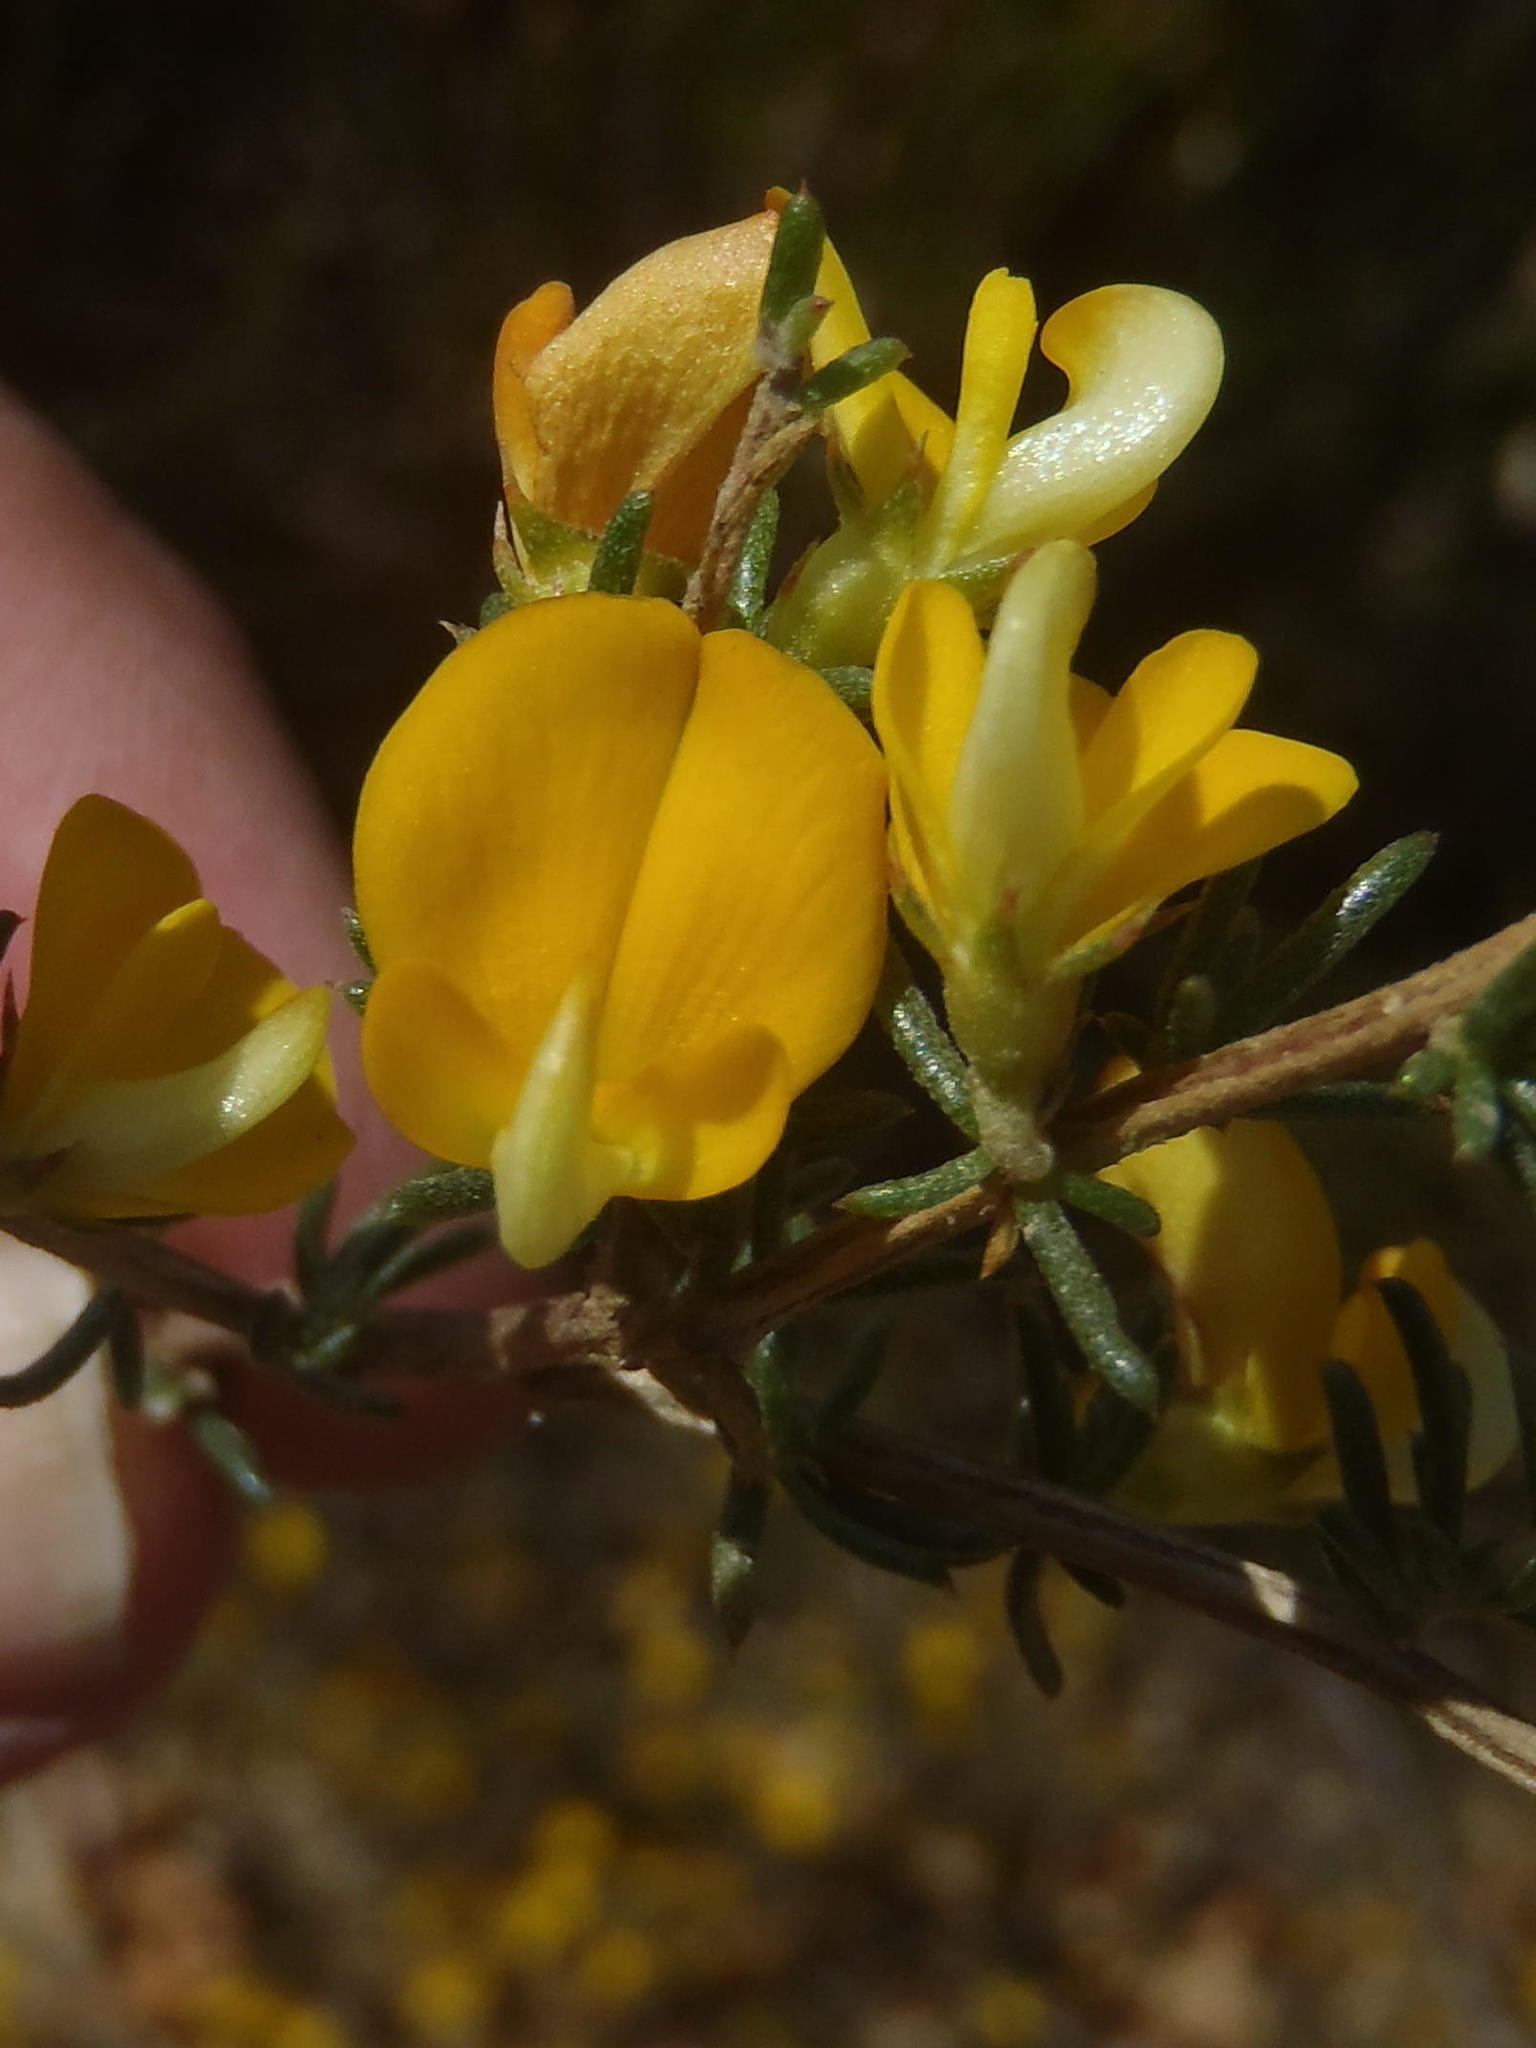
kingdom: Plantae
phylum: Tracheophyta
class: Magnoliopsida
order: Fabales
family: Fabaceae
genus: Aspalathus
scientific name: Aspalathus abietina
